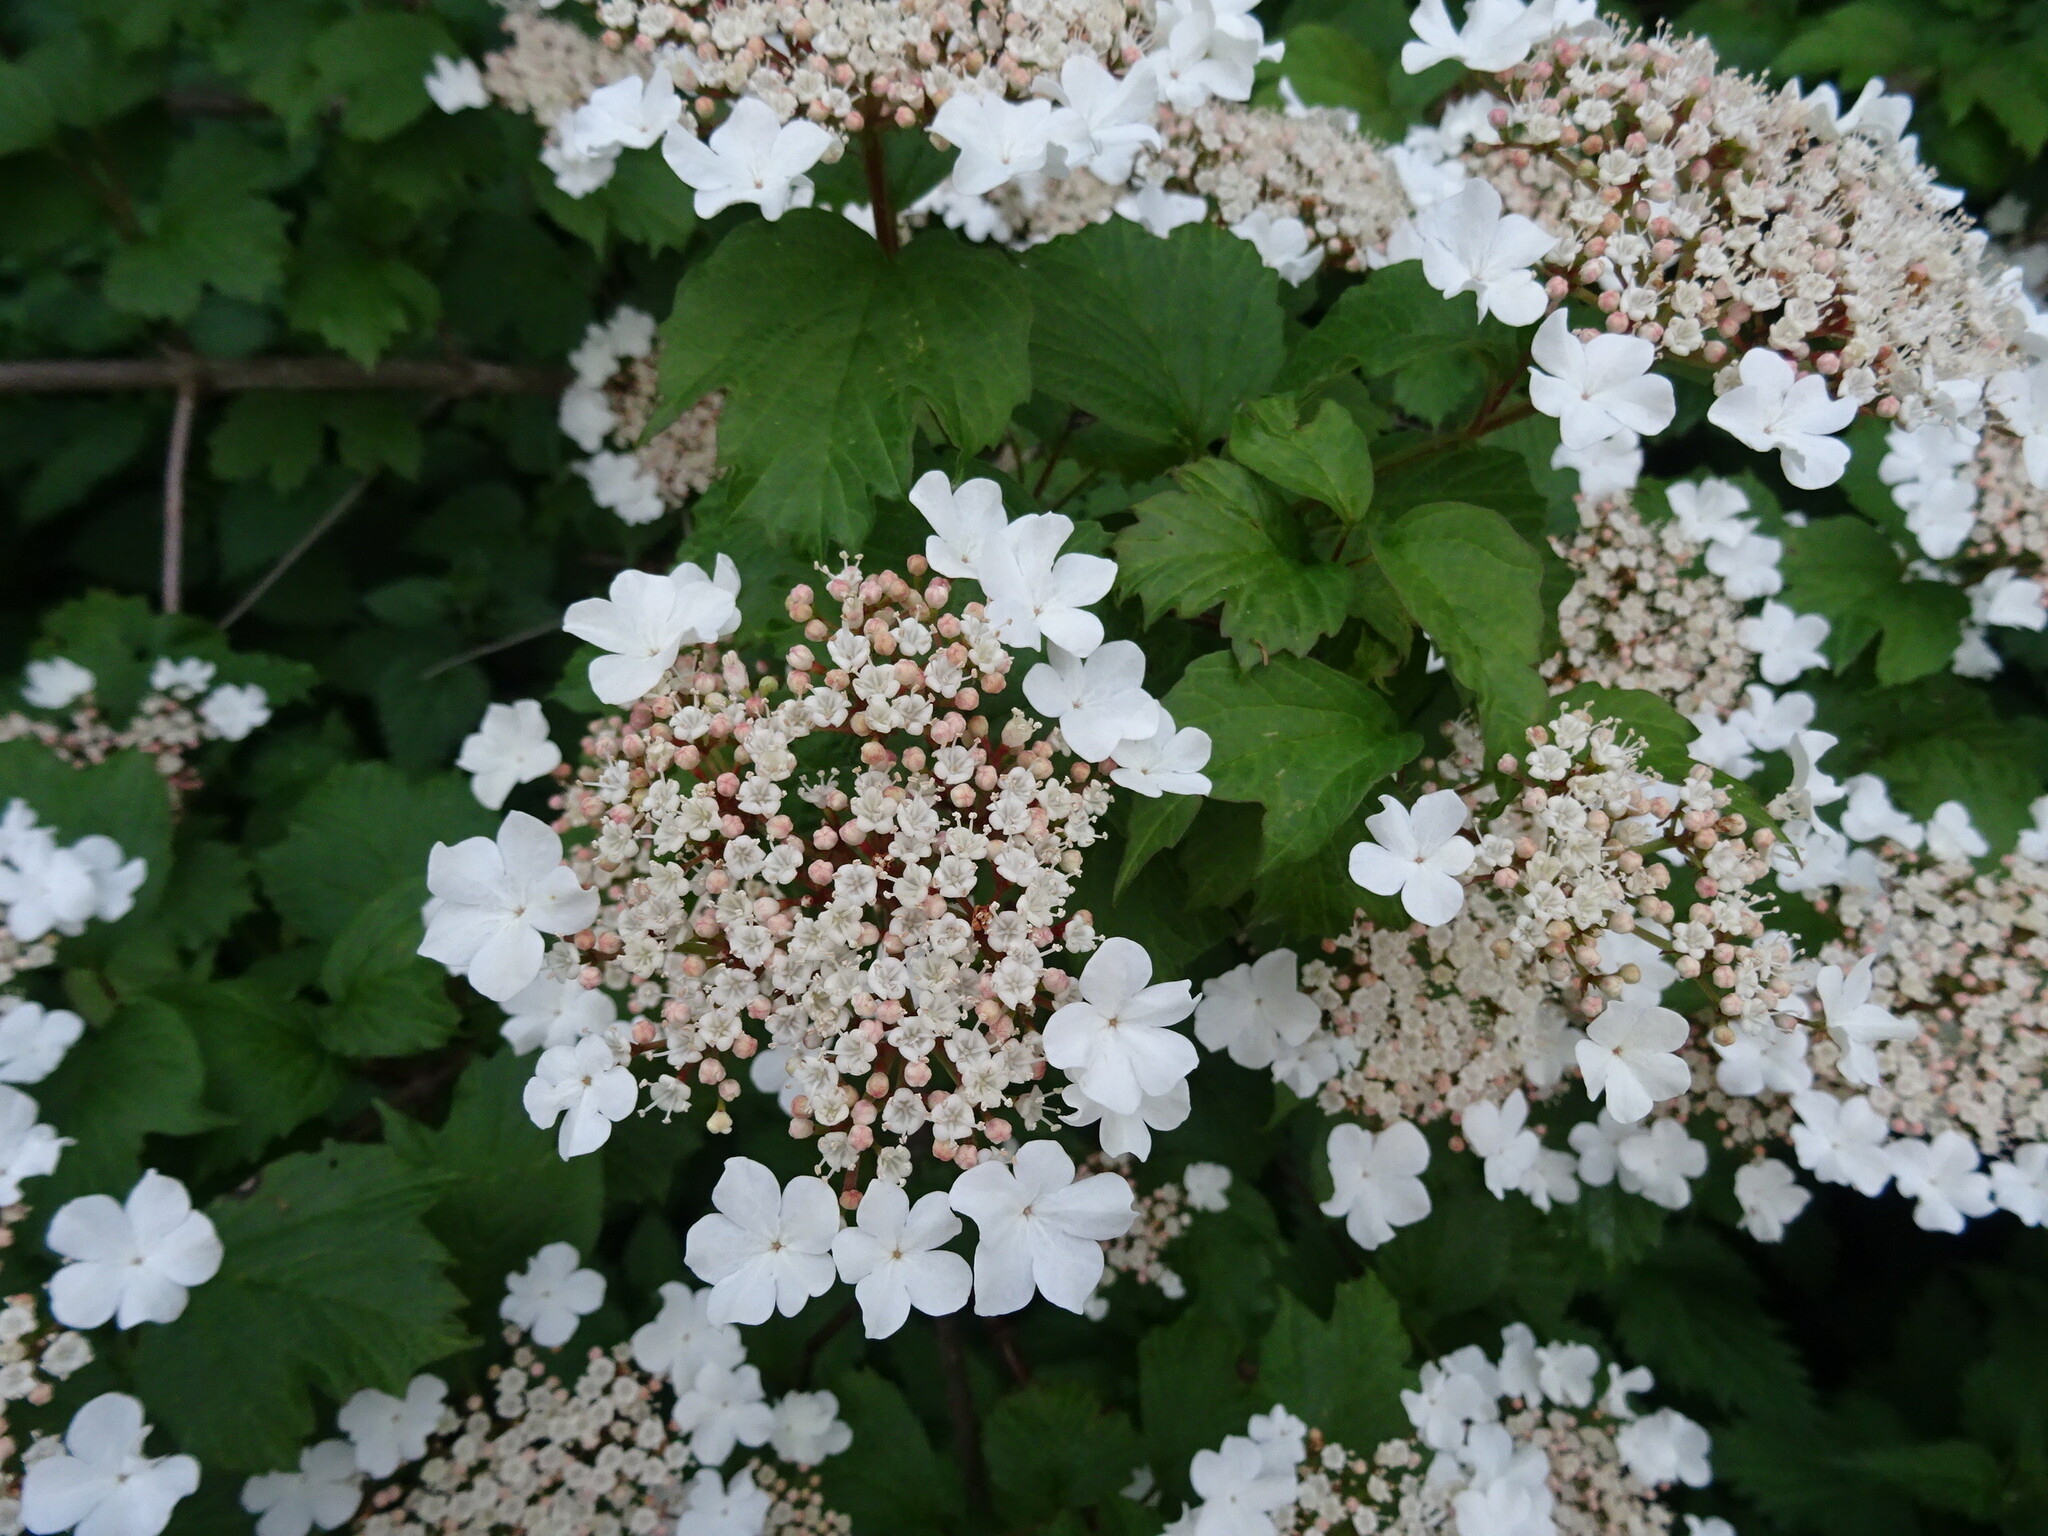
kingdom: Plantae
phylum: Tracheophyta
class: Magnoliopsida
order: Dipsacales
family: Viburnaceae
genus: Viburnum
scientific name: Viburnum opulus
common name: Guelder-rose
